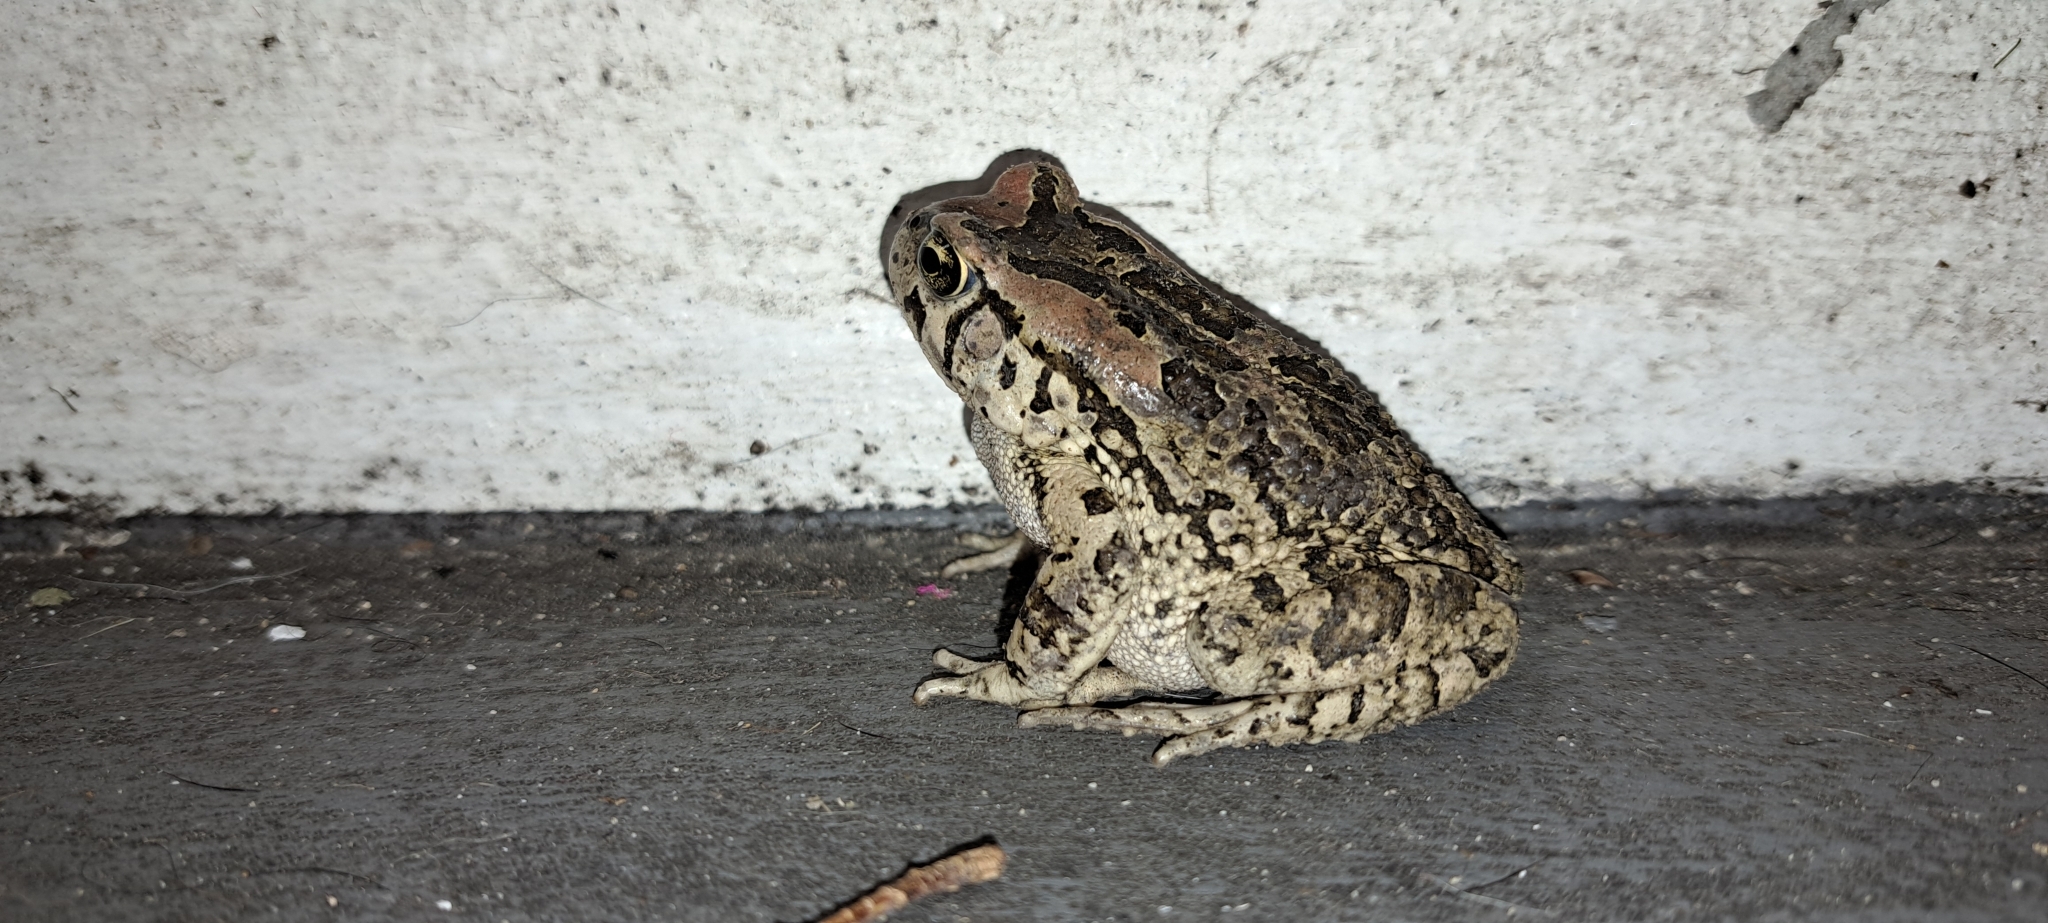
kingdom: Animalia
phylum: Chordata
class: Amphibia
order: Anura
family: Bufonidae
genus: Sclerophrys
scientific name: Sclerophrys capensis
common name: Ranger’s toad
